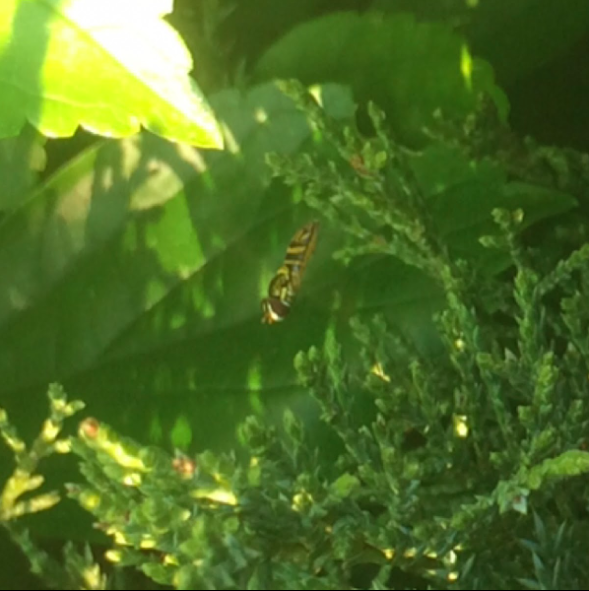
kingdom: Animalia
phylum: Arthropoda
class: Insecta
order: Diptera
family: Syrphidae
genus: Allograpta
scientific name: Allograpta obliqua
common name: Common oblique syrphid
